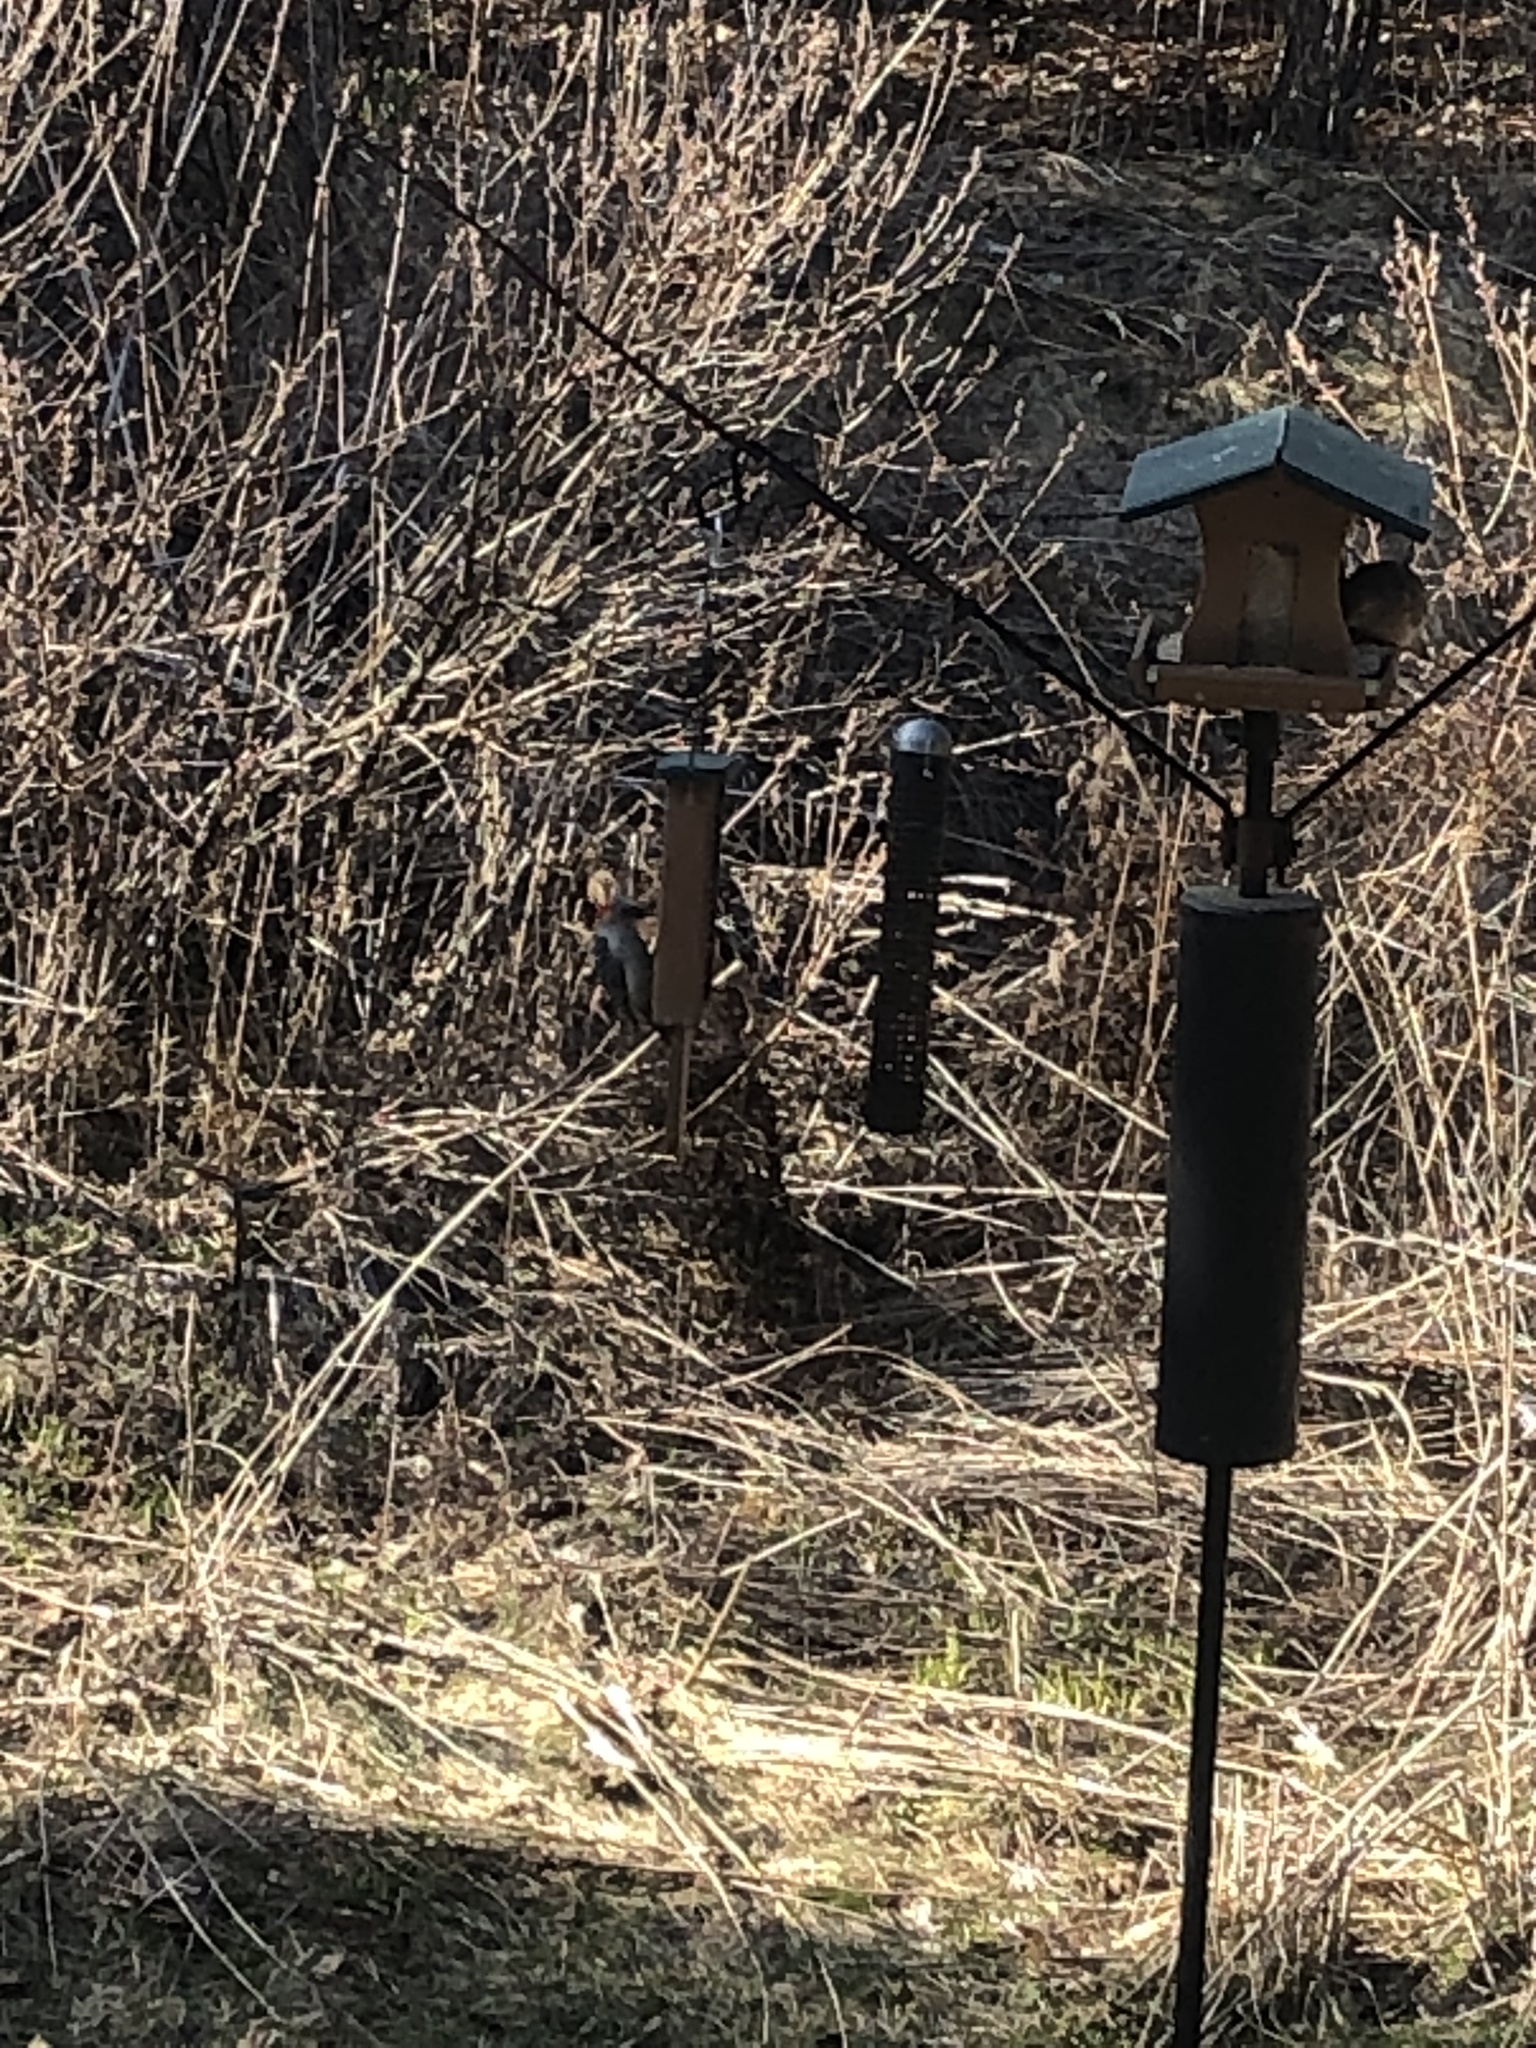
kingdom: Animalia
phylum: Chordata
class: Aves
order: Piciformes
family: Picidae
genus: Melanerpes
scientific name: Melanerpes carolinus
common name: Red-bellied woodpecker
